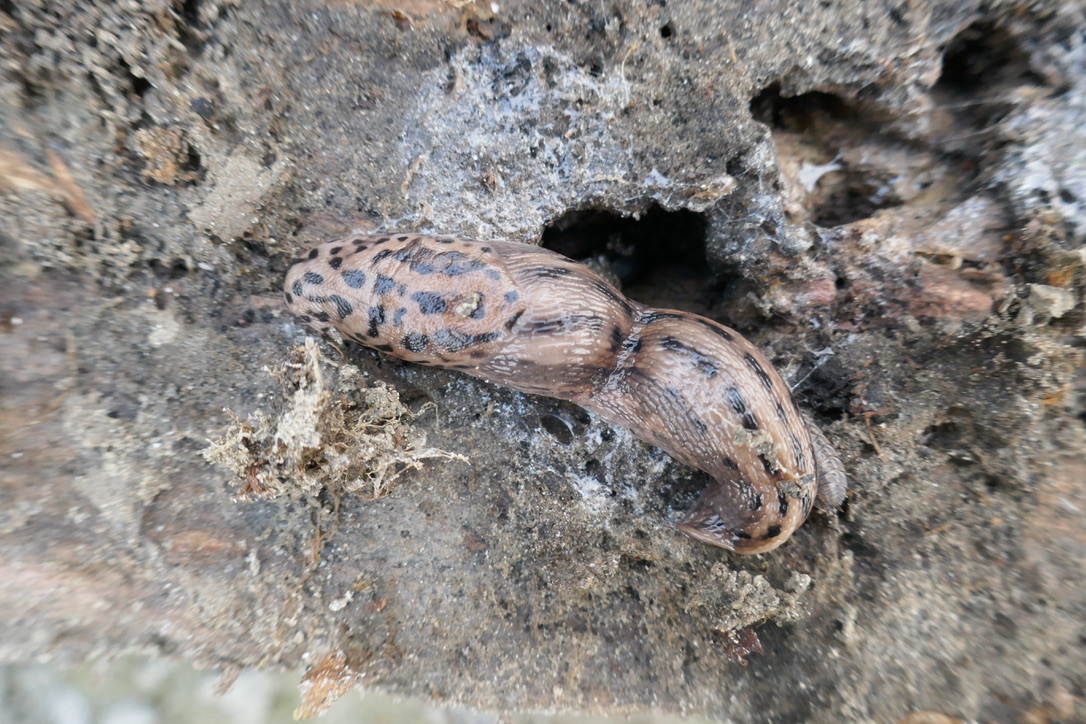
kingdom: Animalia
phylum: Mollusca
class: Gastropoda
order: Stylommatophora
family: Limacidae
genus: Limax
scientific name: Limax maximus
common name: Great grey slug
